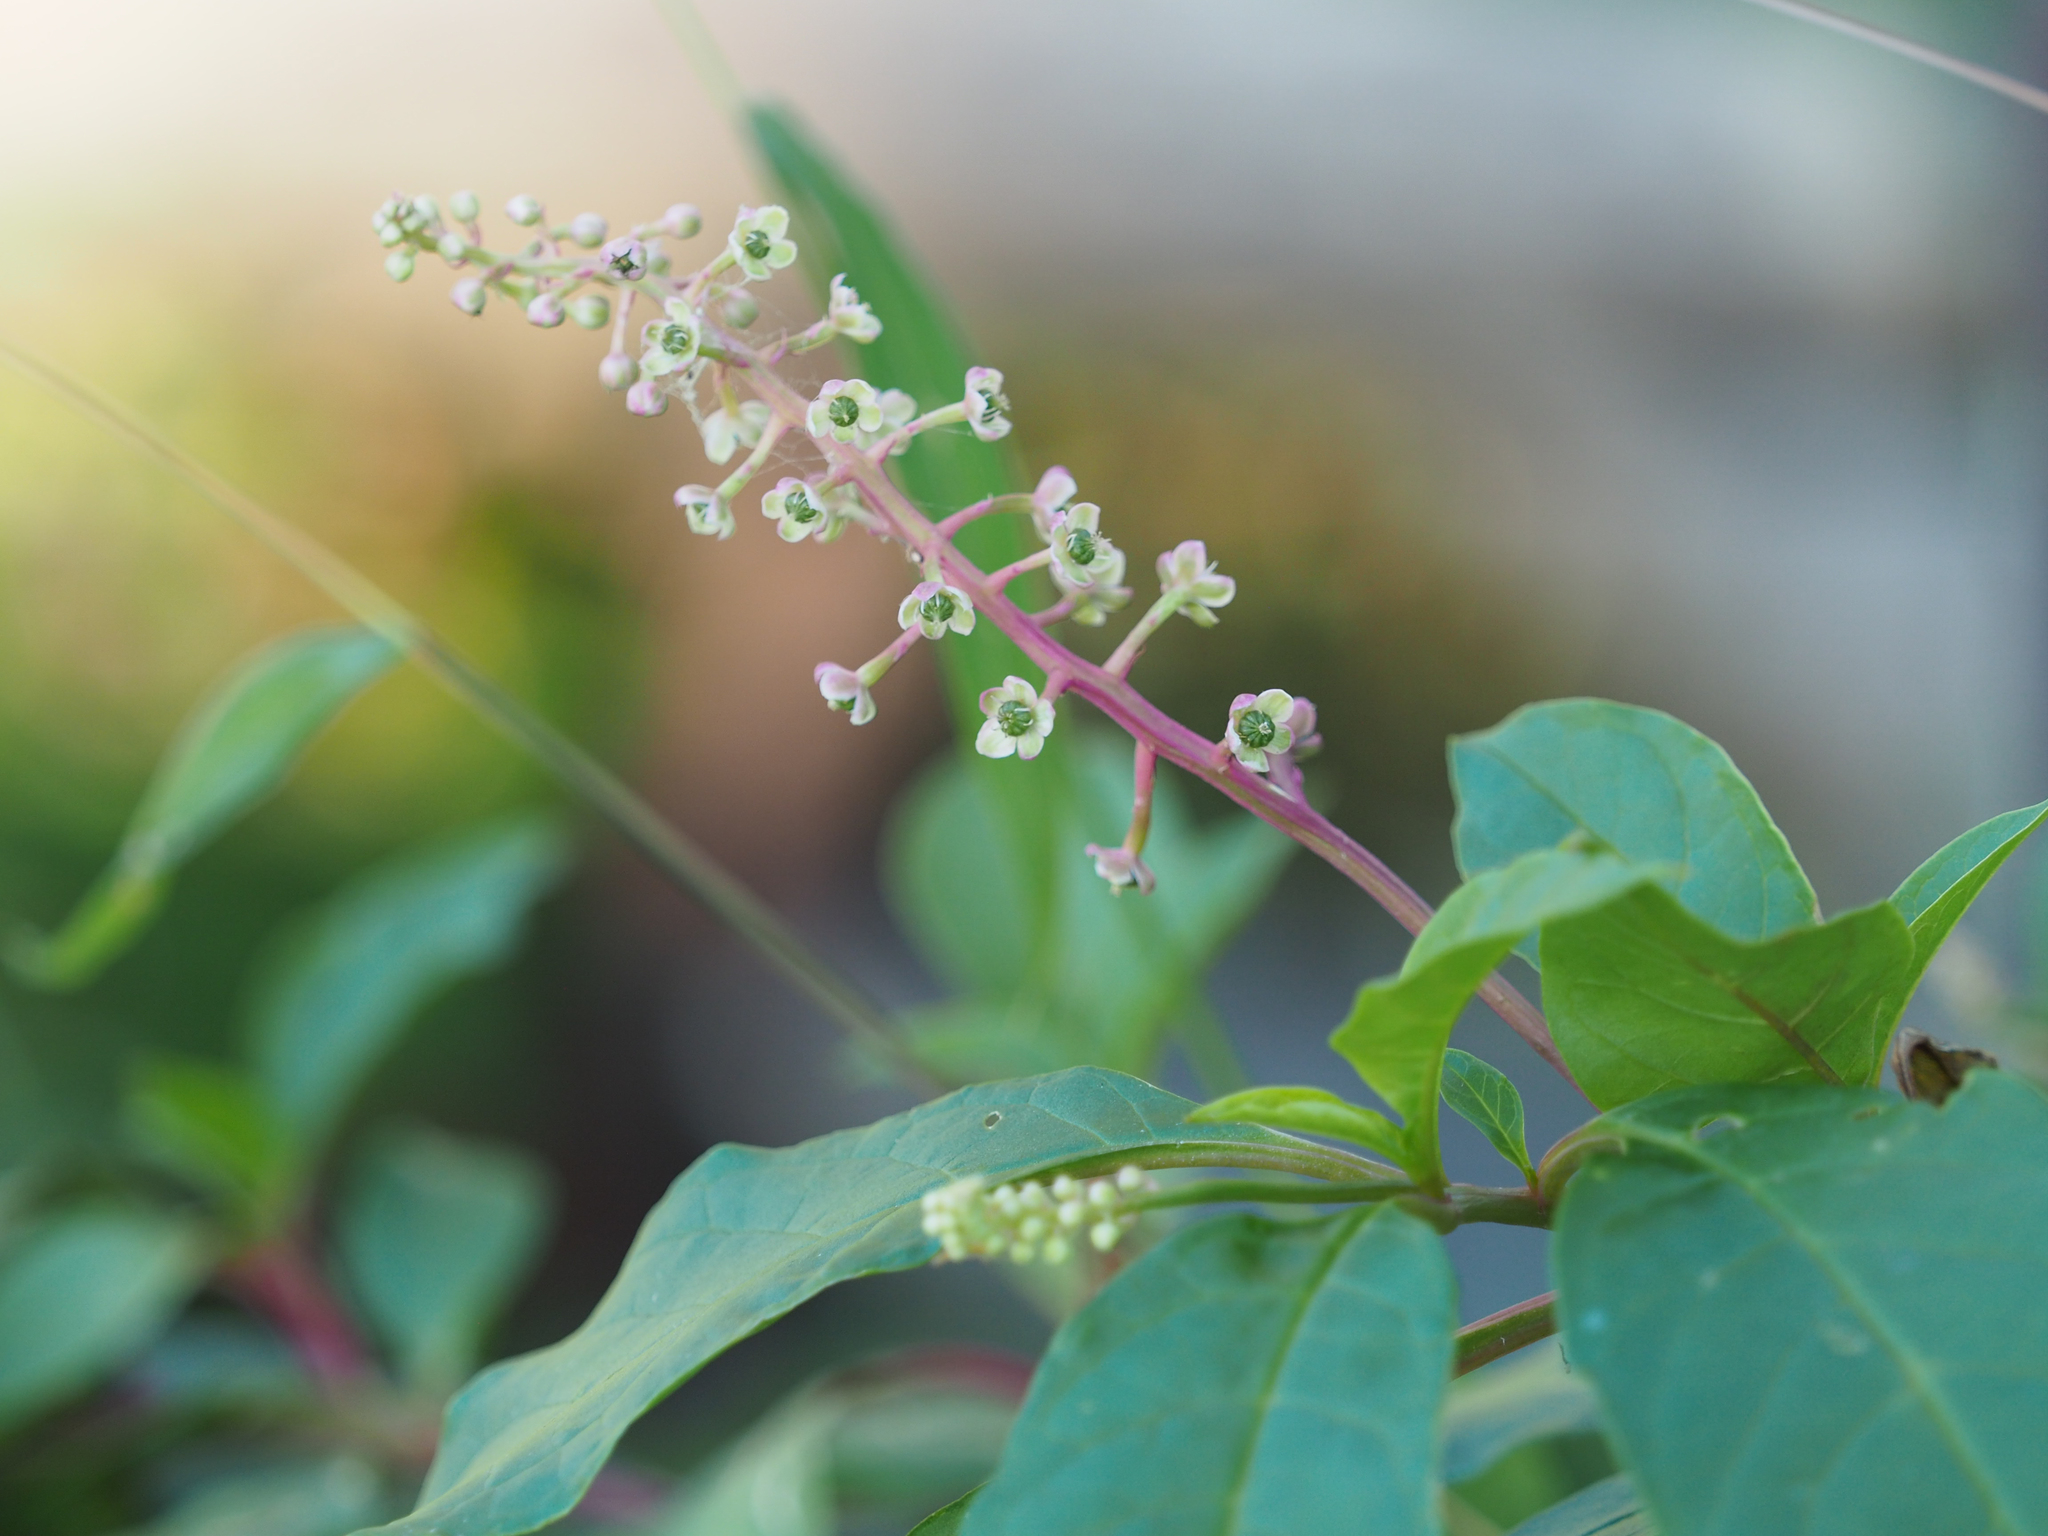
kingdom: Plantae
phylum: Tracheophyta
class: Magnoliopsida
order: Caryophyllales
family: Phytolaccaceae
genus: Phytolacca
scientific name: Phytolacca americana
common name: American pokeweed
